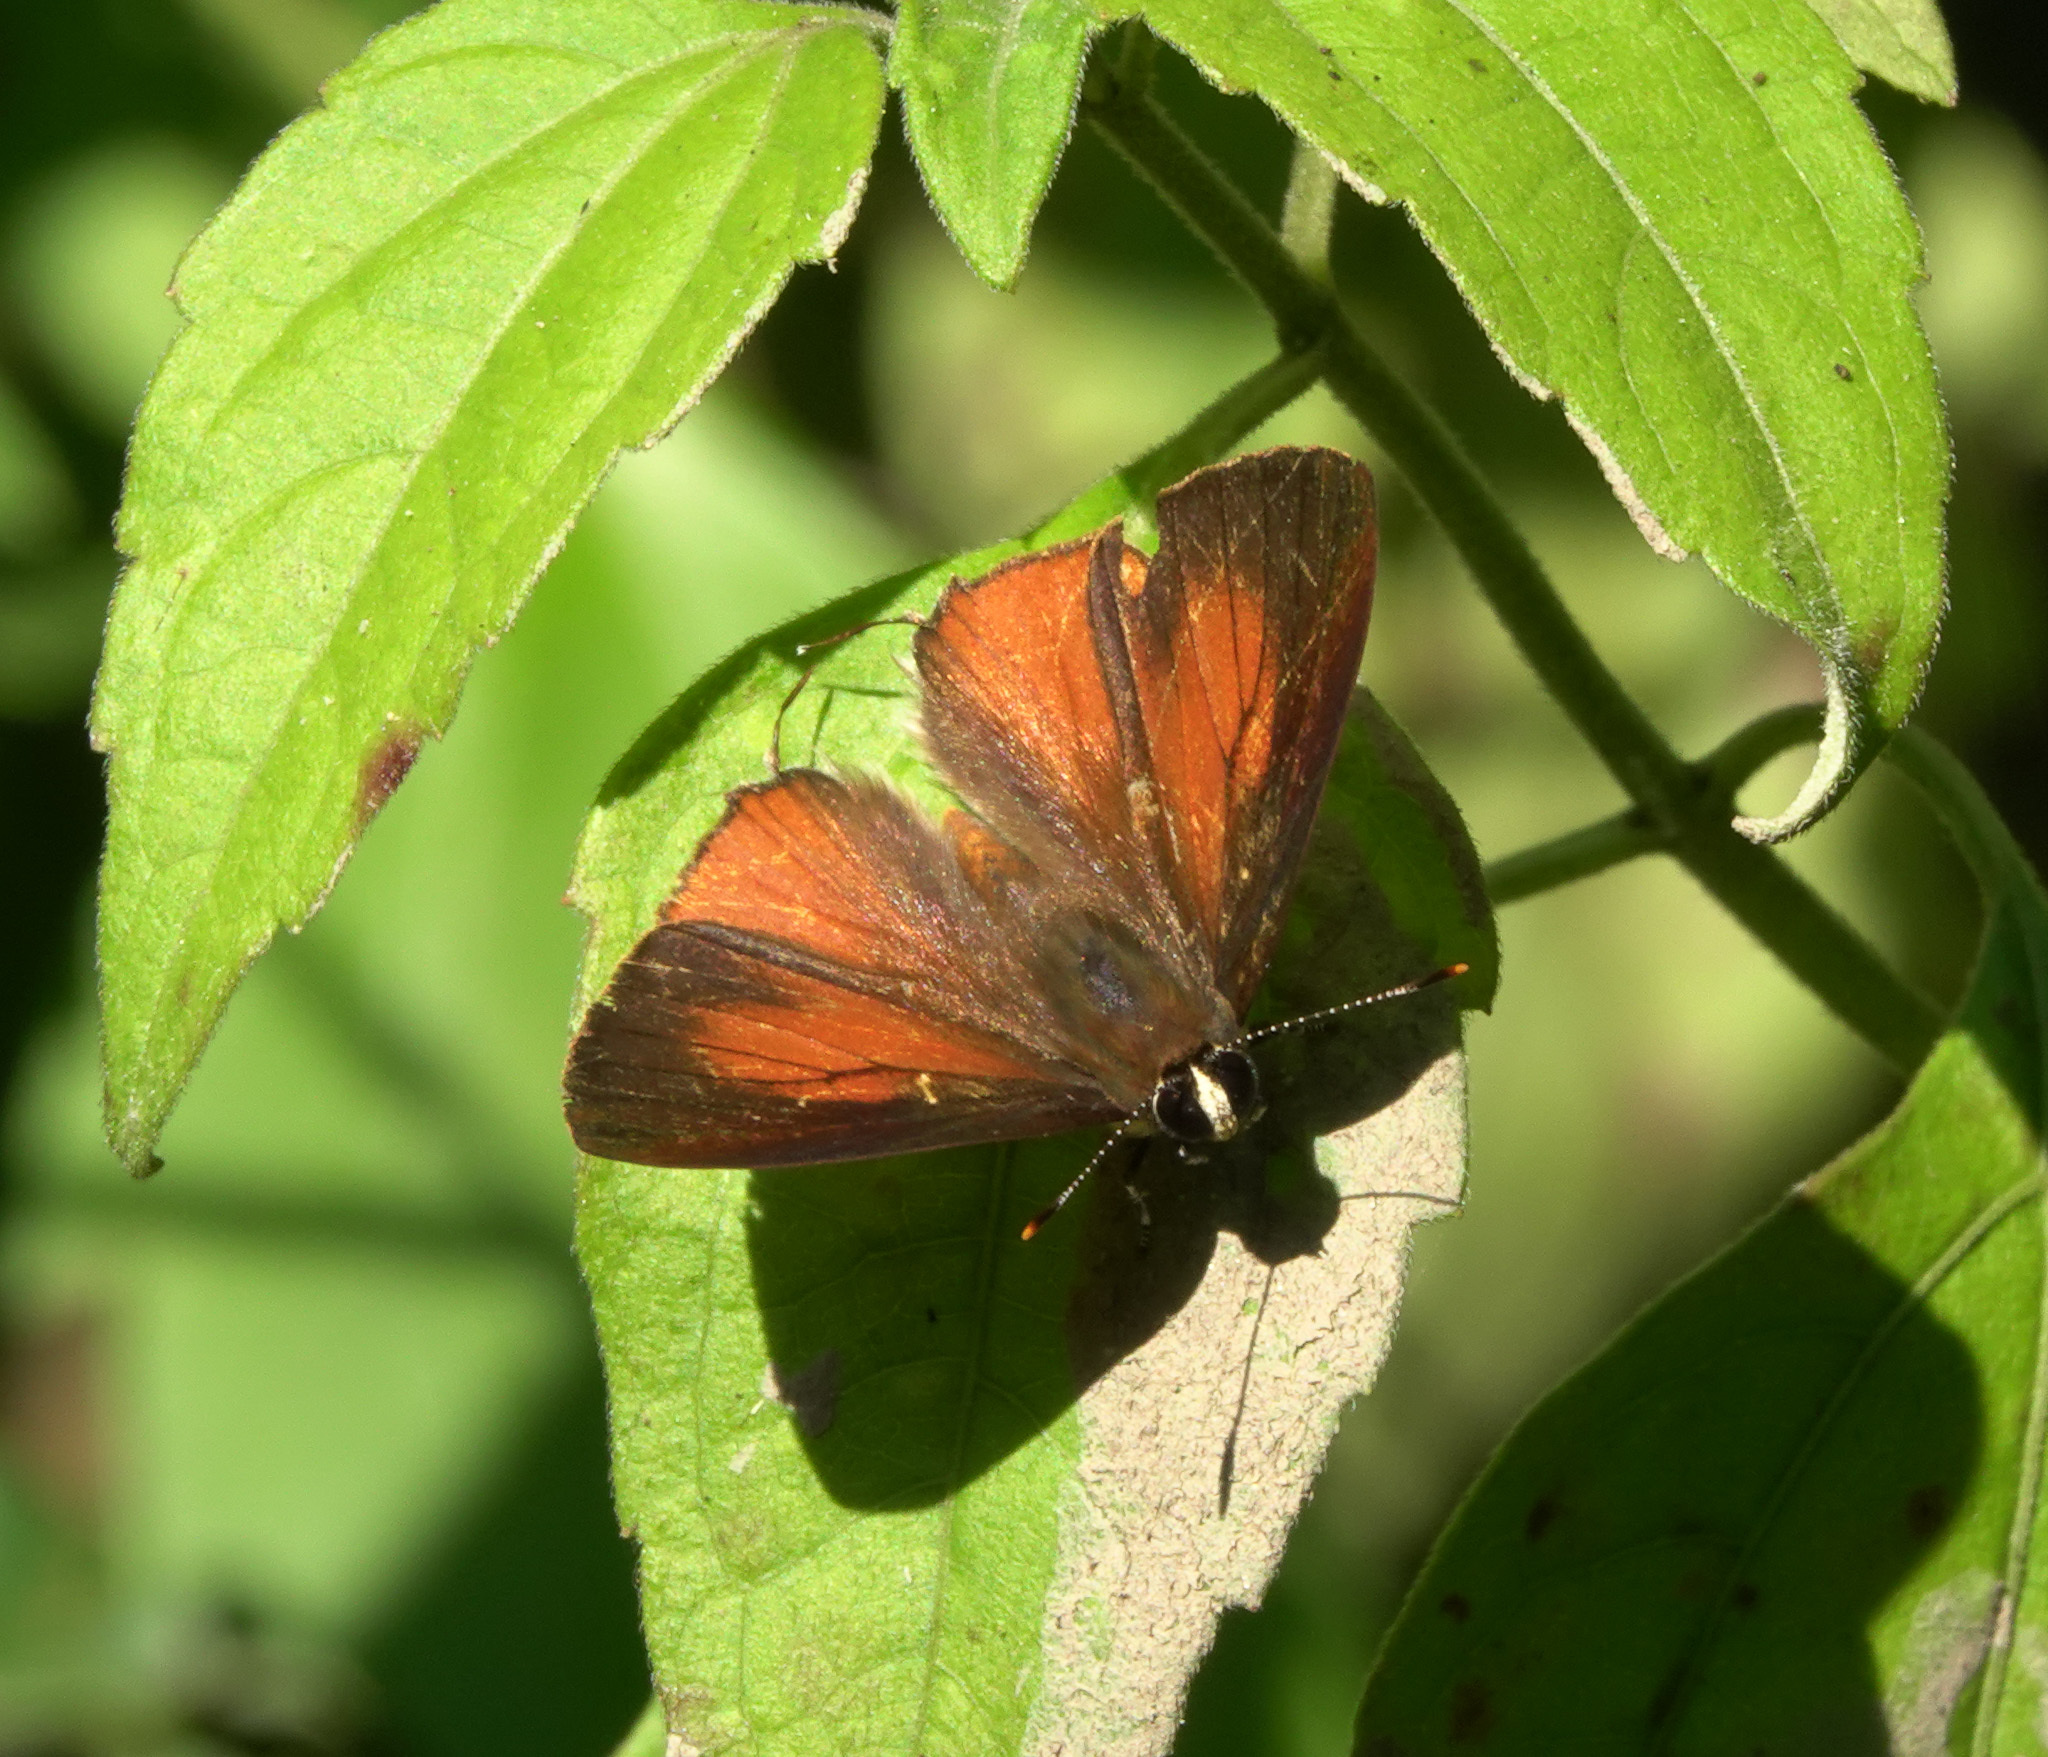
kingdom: Animalia
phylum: Arthropoda
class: Insecta
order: Lepidoptera
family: Lycaenidae
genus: Rapala
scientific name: Rapala suffusa
